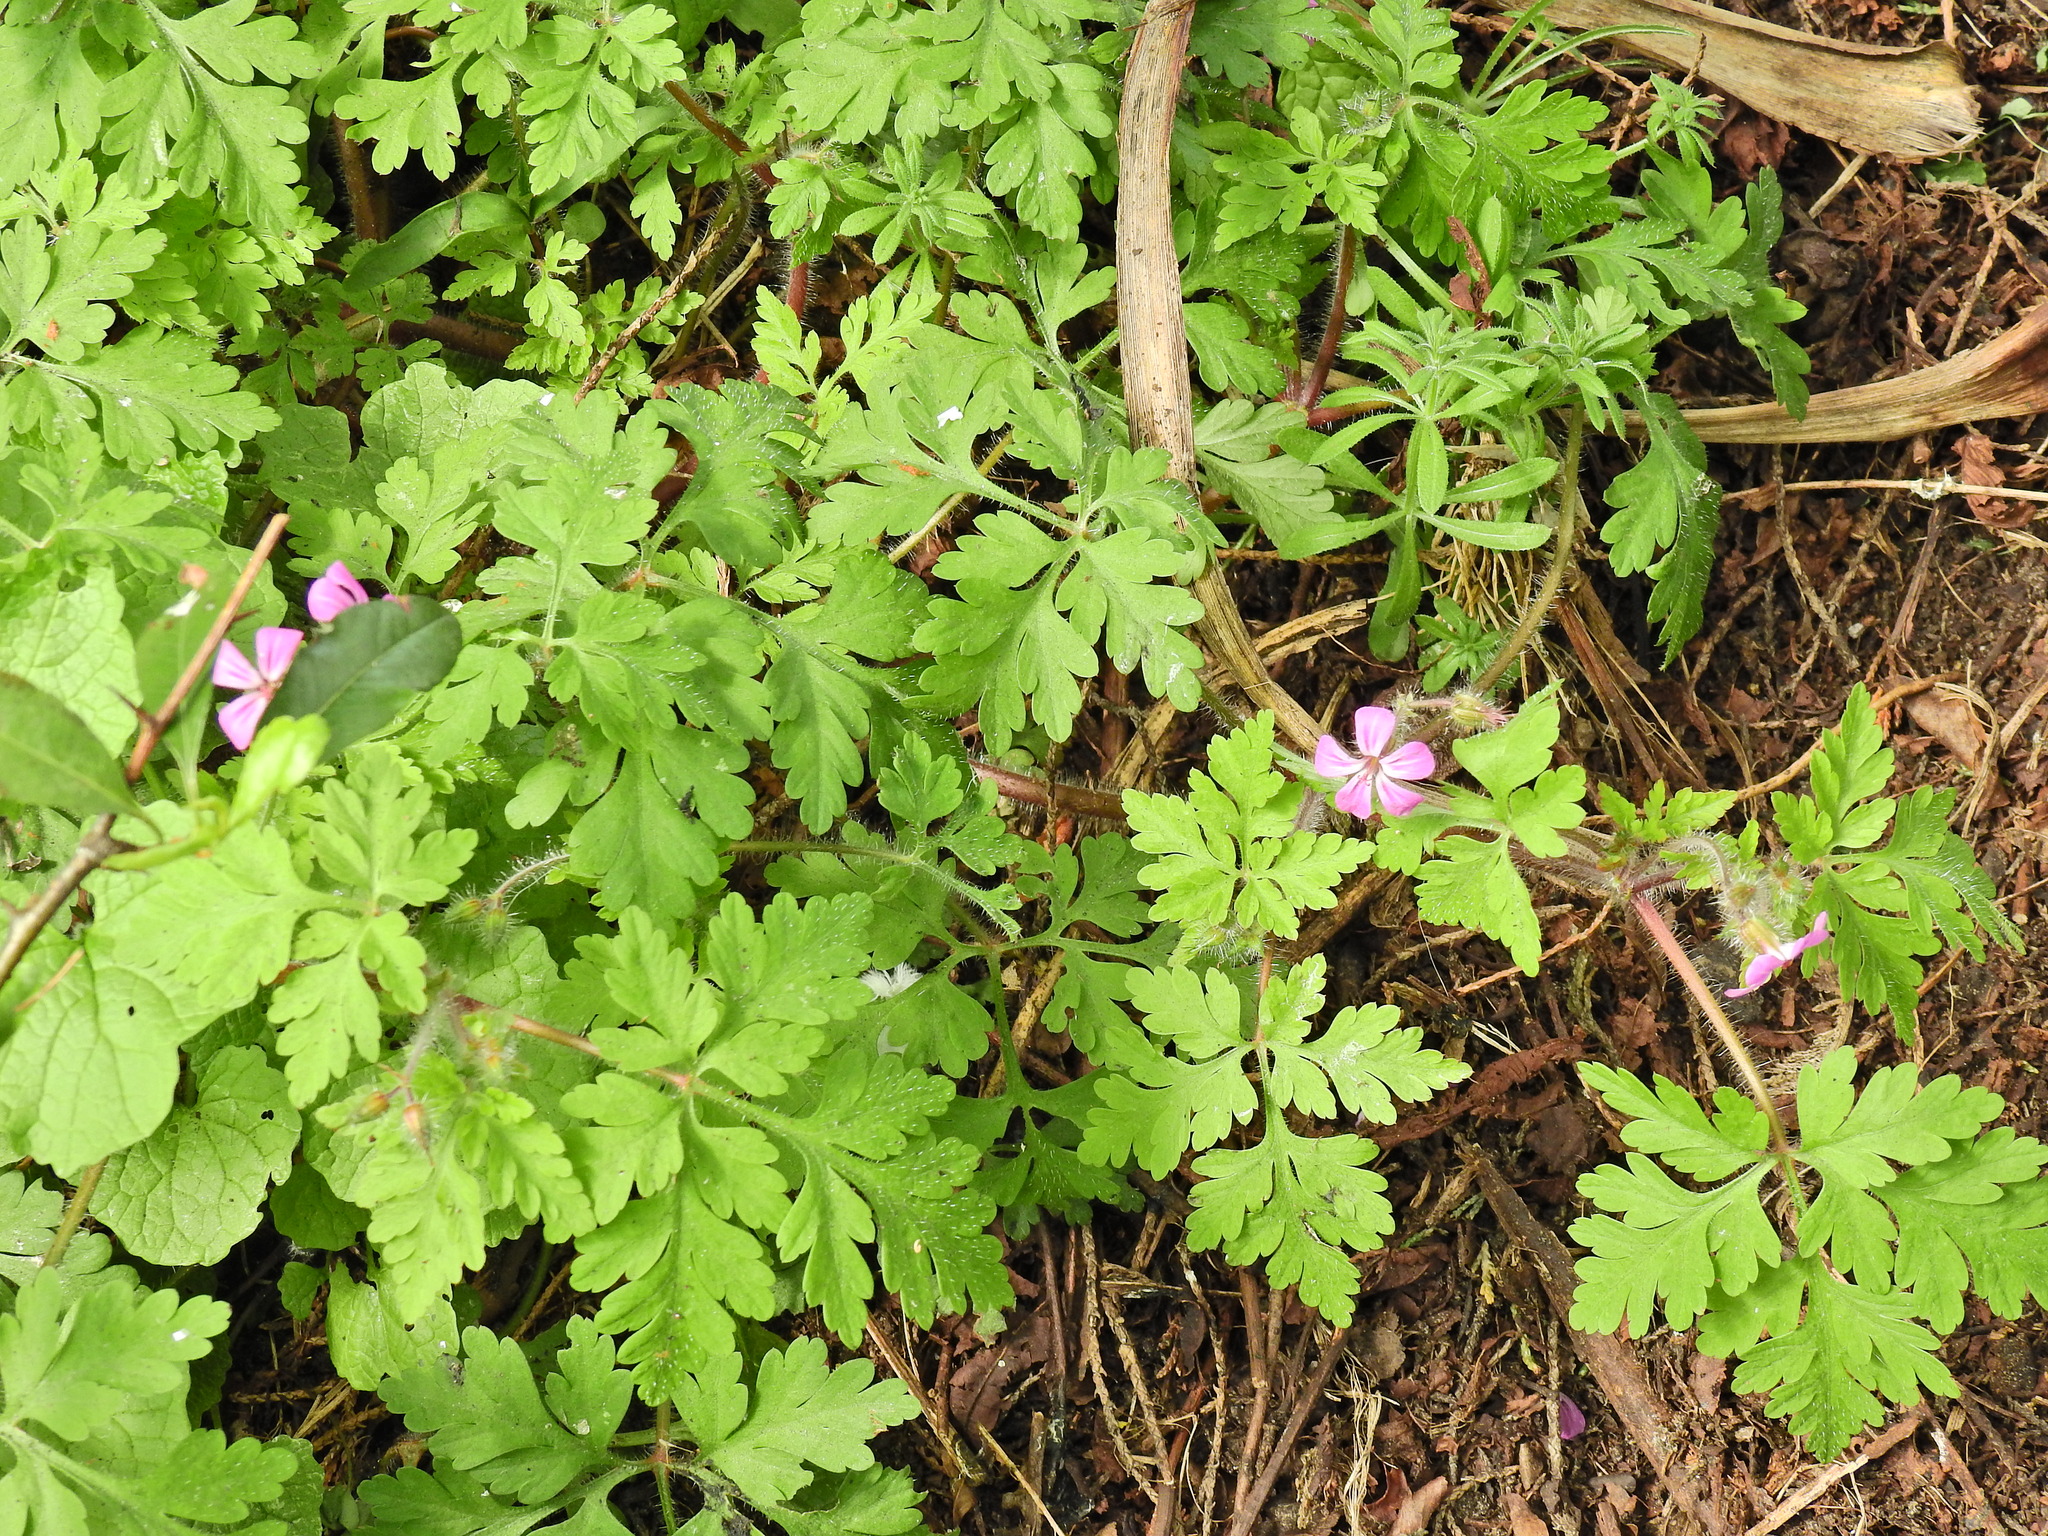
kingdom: Plantae
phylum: Tracheophyta
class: Magnoliopsida
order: Geraniales
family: Geraniaceae
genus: Geranium
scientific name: Geranium robertianum
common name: Herb-robert
